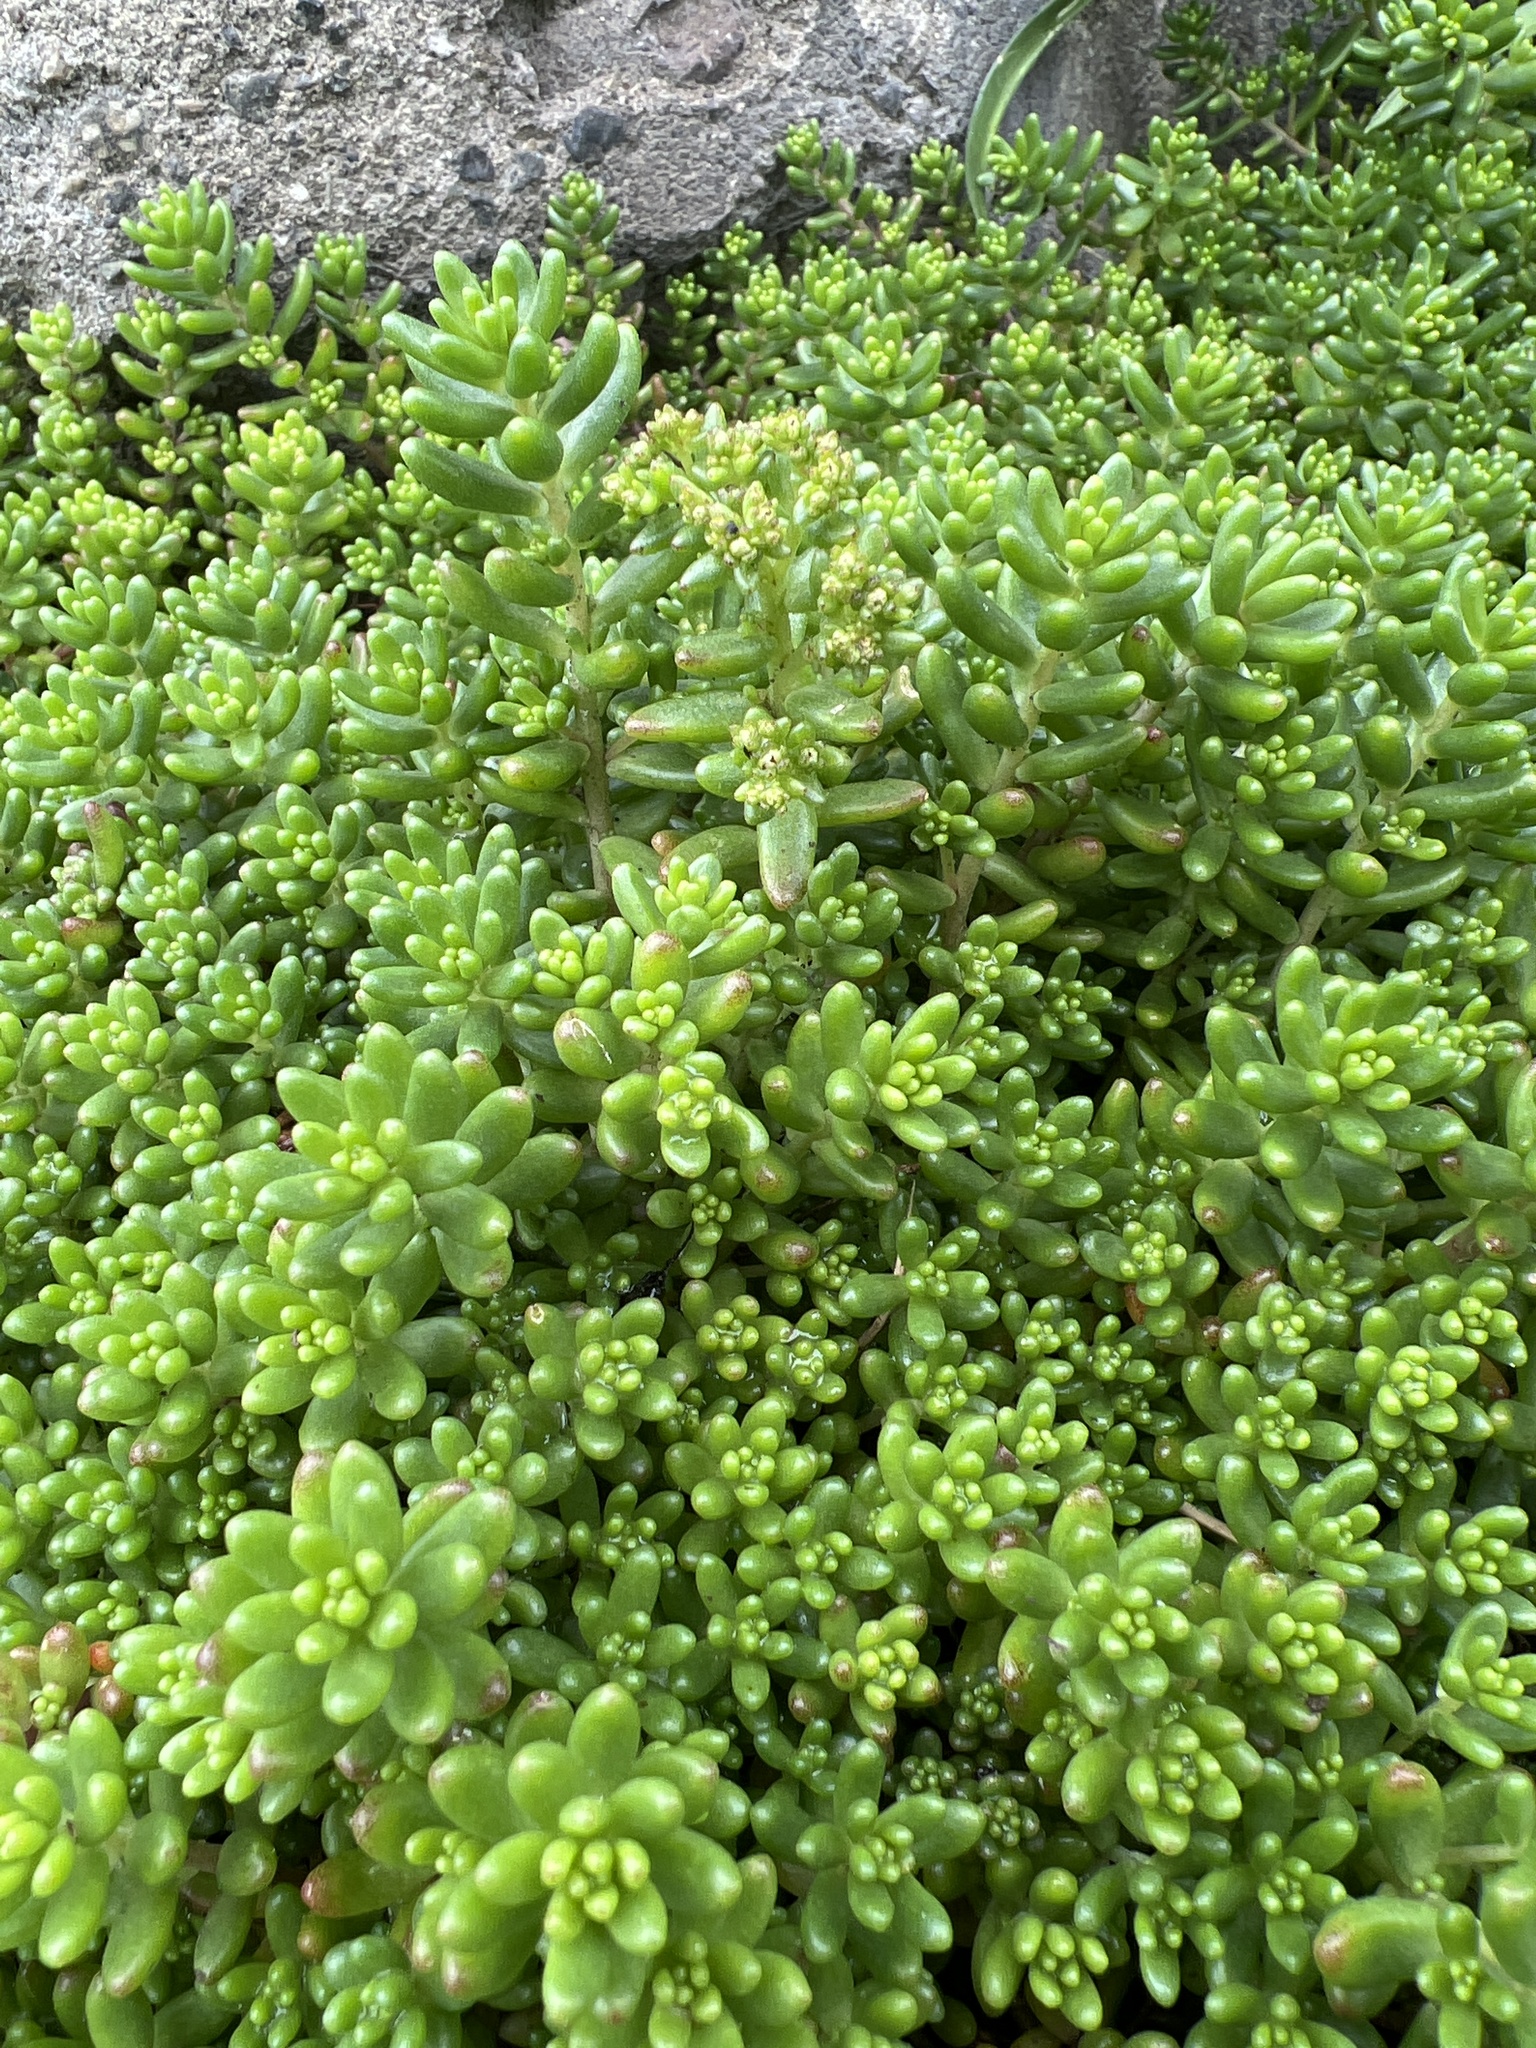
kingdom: Plantae
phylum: Tracheophyta
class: Magnoliopsida
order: Saxifragales
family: Crassulaceae
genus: Sedum
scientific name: Sedum album
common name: White stonecrop
